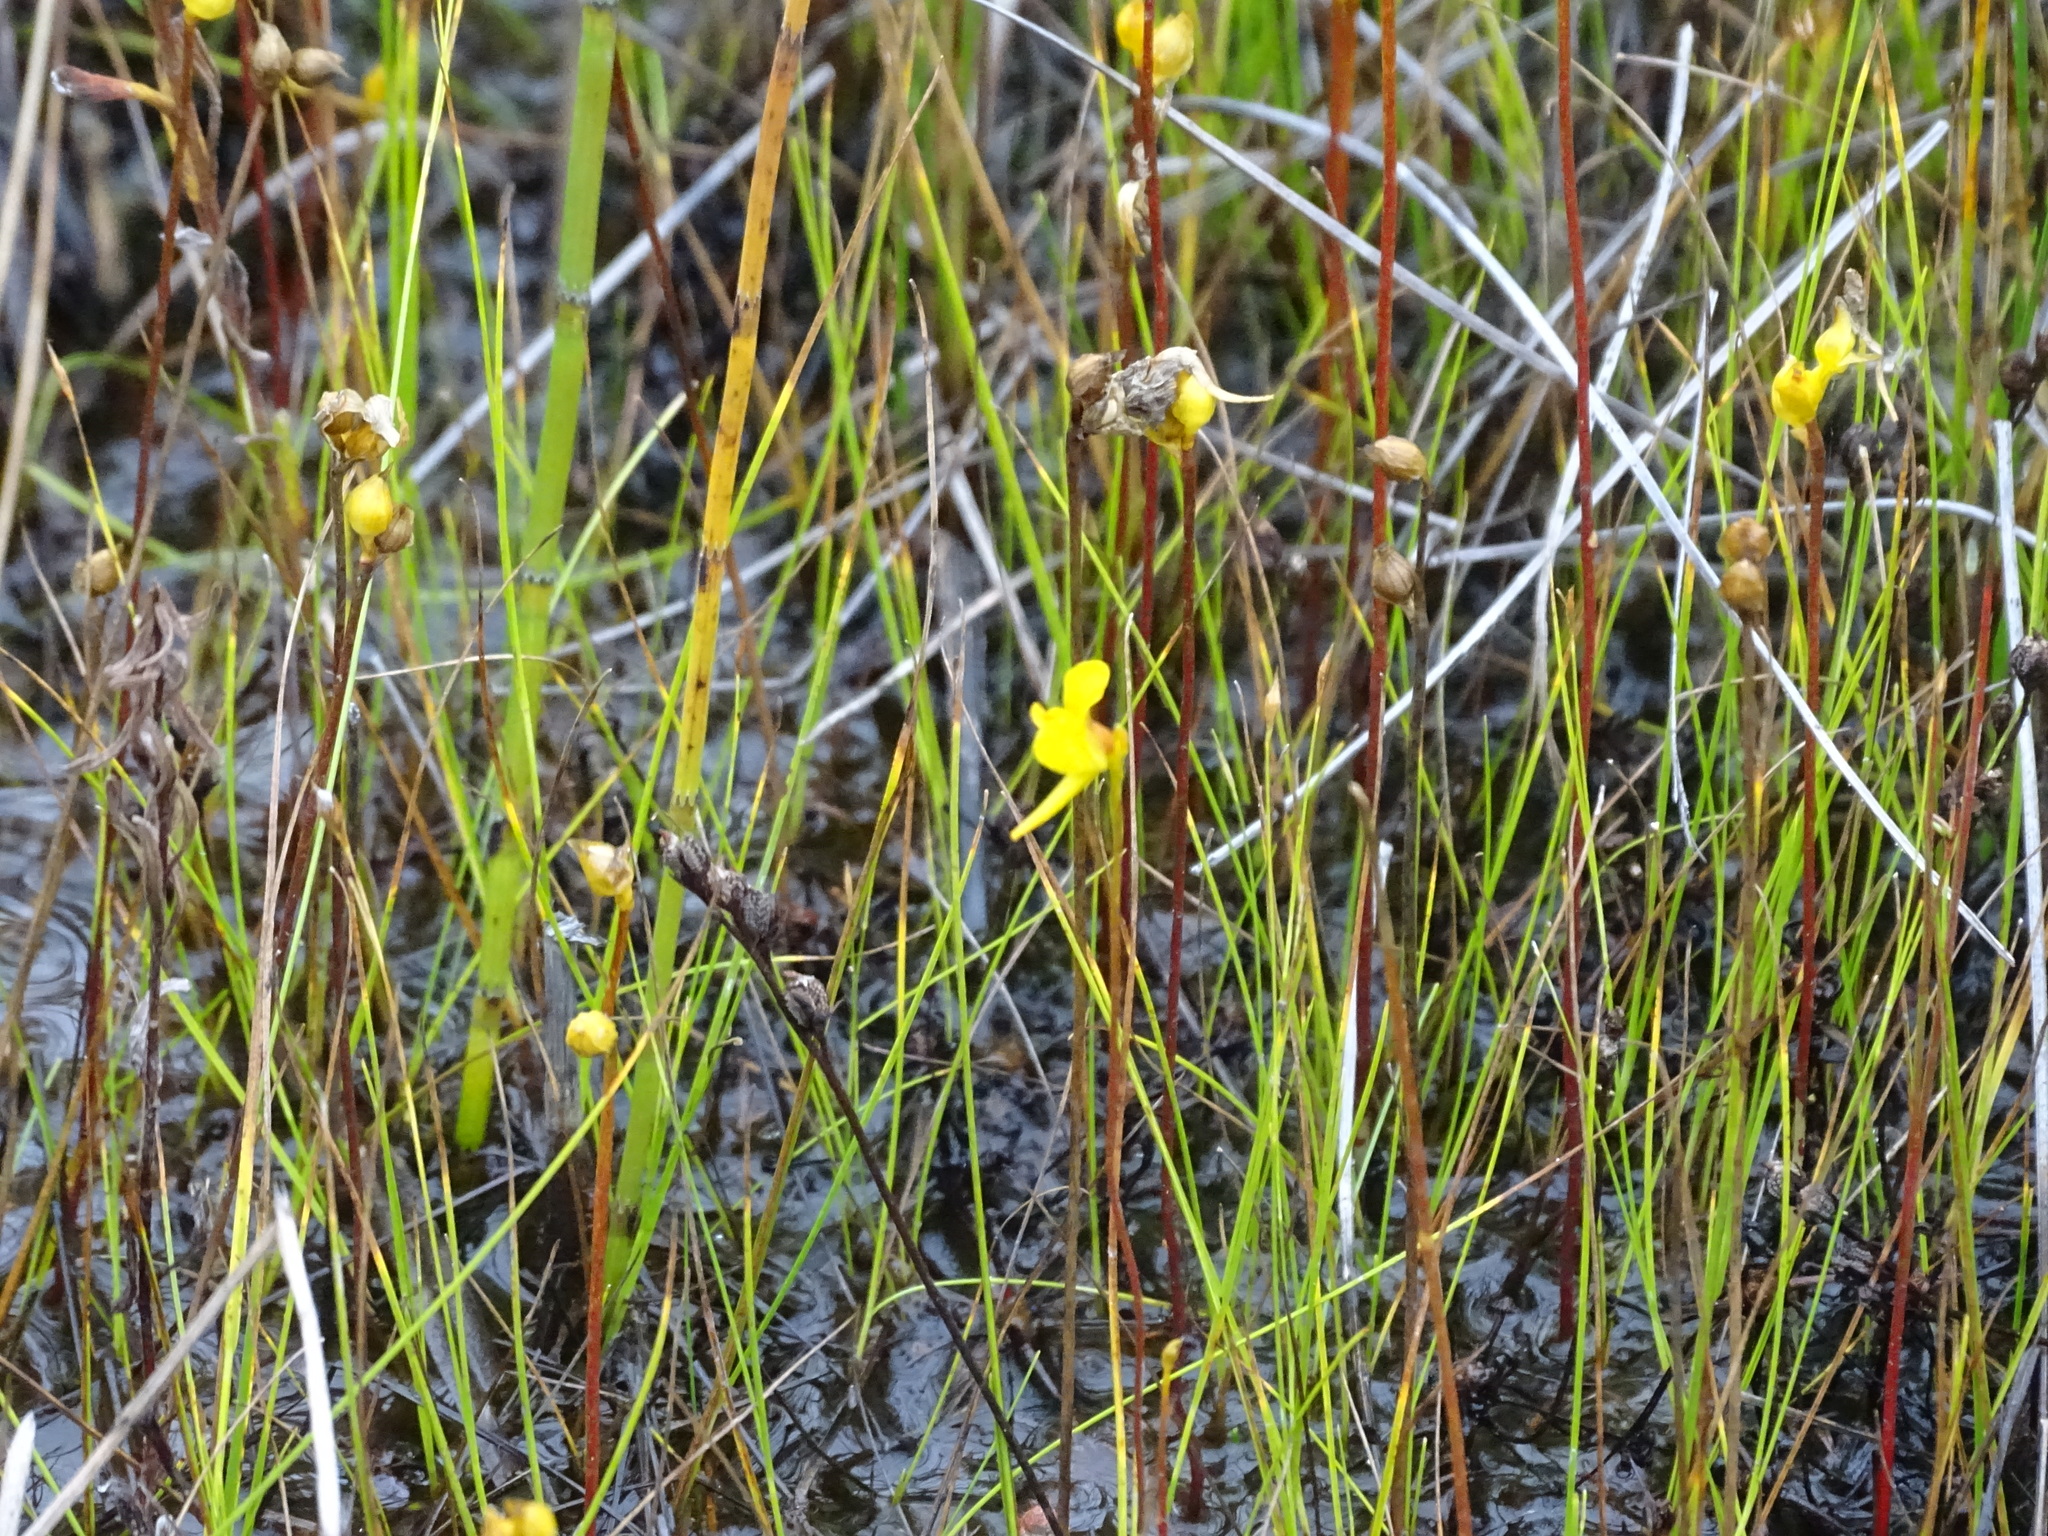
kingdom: Plantae
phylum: Tracheophyta
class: Magnoliopsida
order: Lamiales
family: Lentibulariaceae
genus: Utricularia
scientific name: Utricularia cornuta
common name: Horned bladderwort
